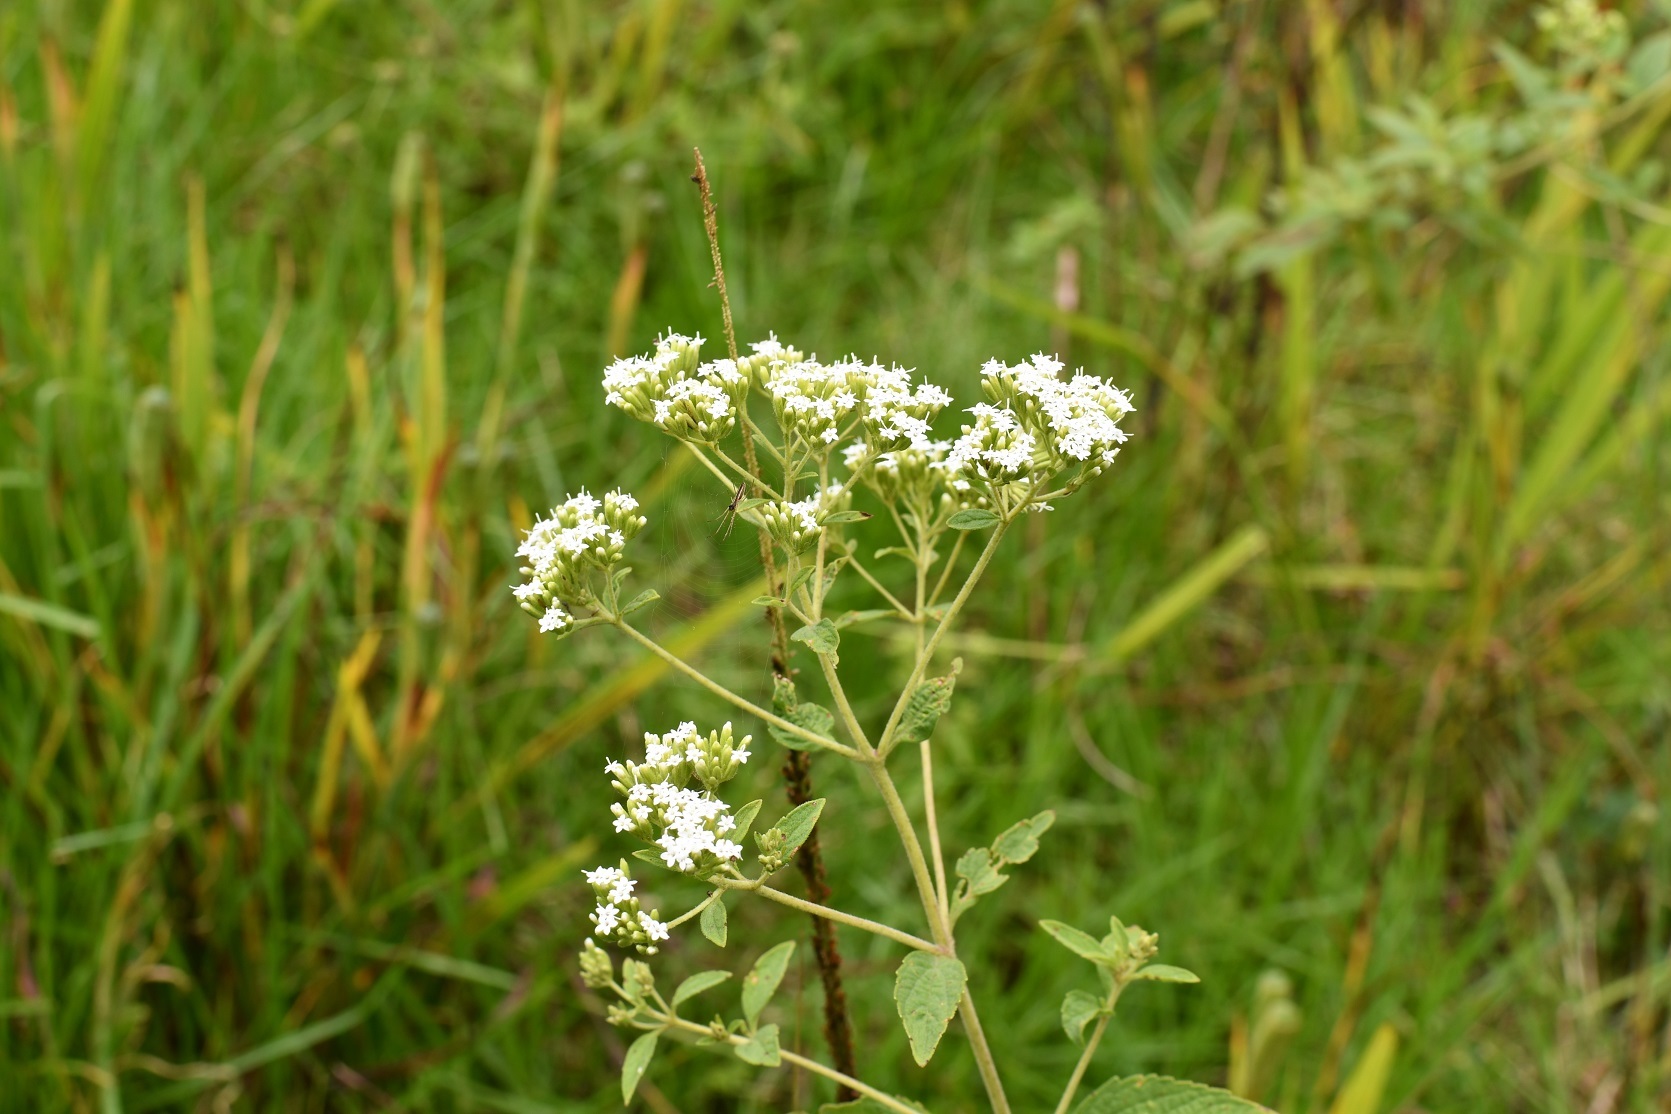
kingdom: Plantae
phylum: Tracheophyta
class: Magnoliopsida
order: Asterales
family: Asteraceae
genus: Stevia
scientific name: Stevia ovata
